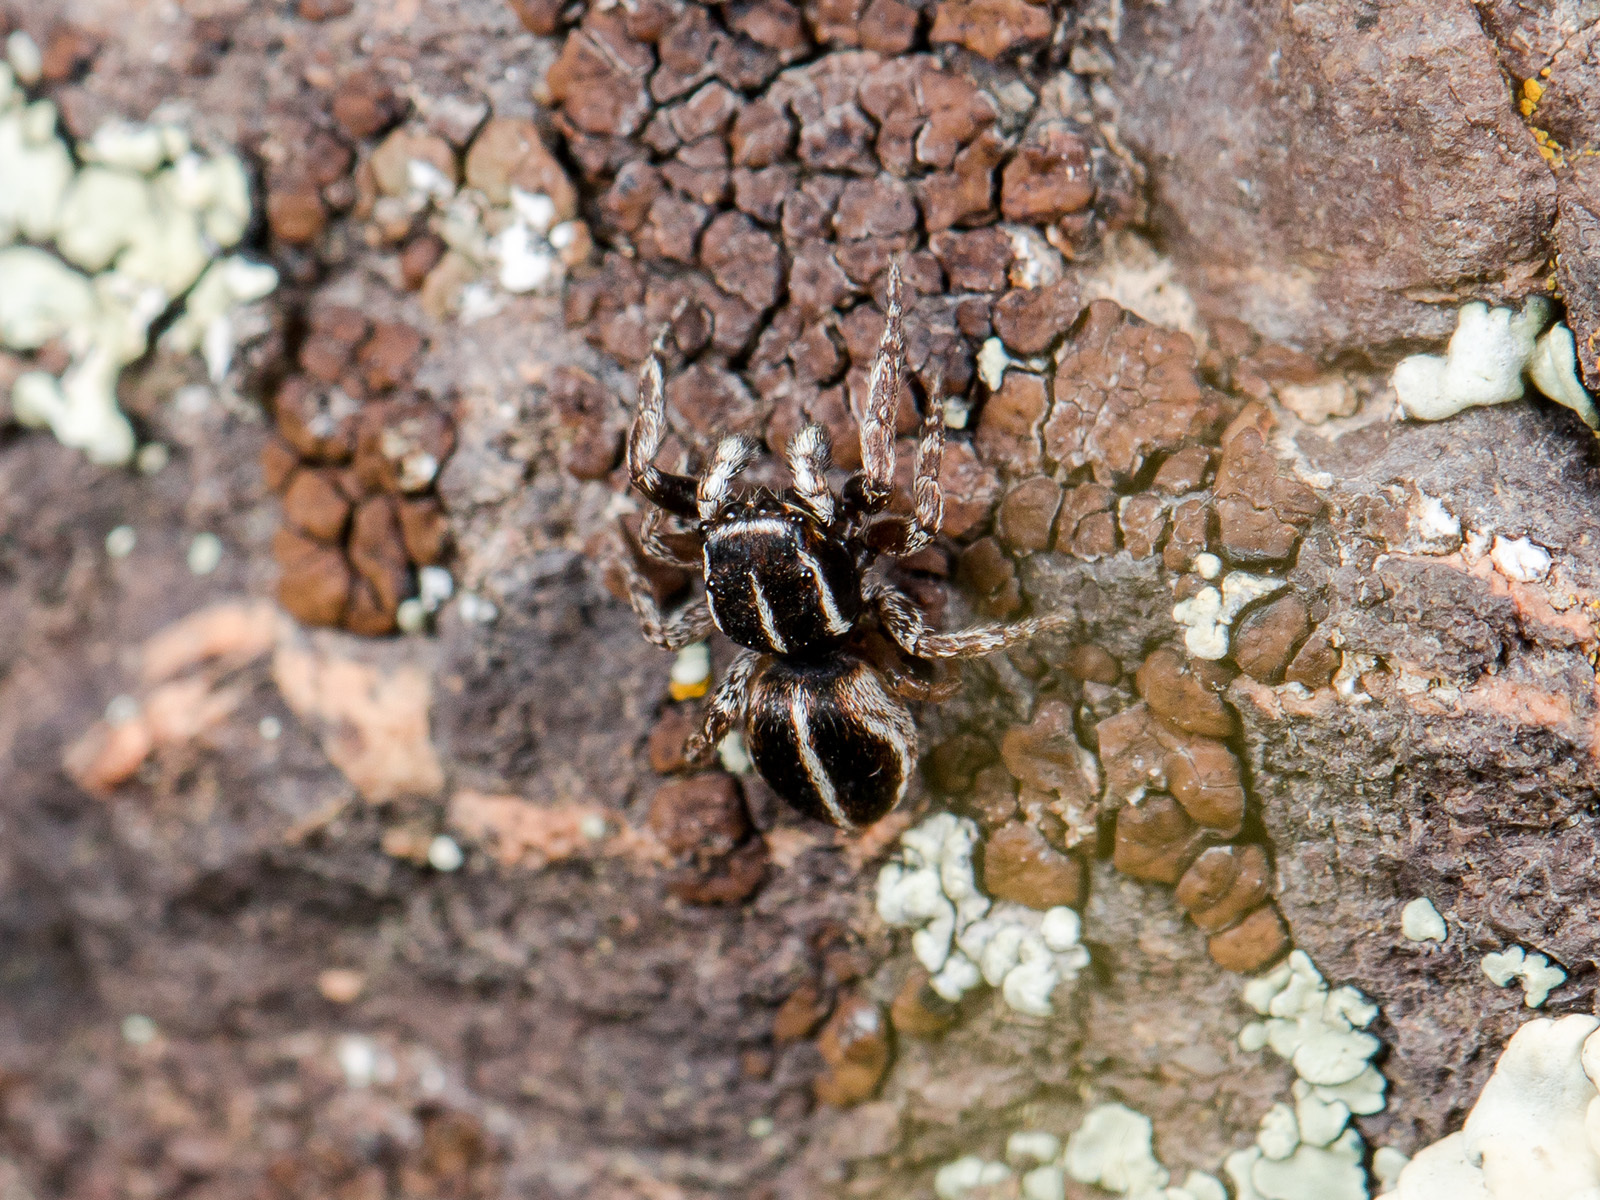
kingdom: Animalia
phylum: Arthropoda
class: Arachnida
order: Araneae
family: Salticidae
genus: Attulus
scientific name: Attulus monstrabilis
